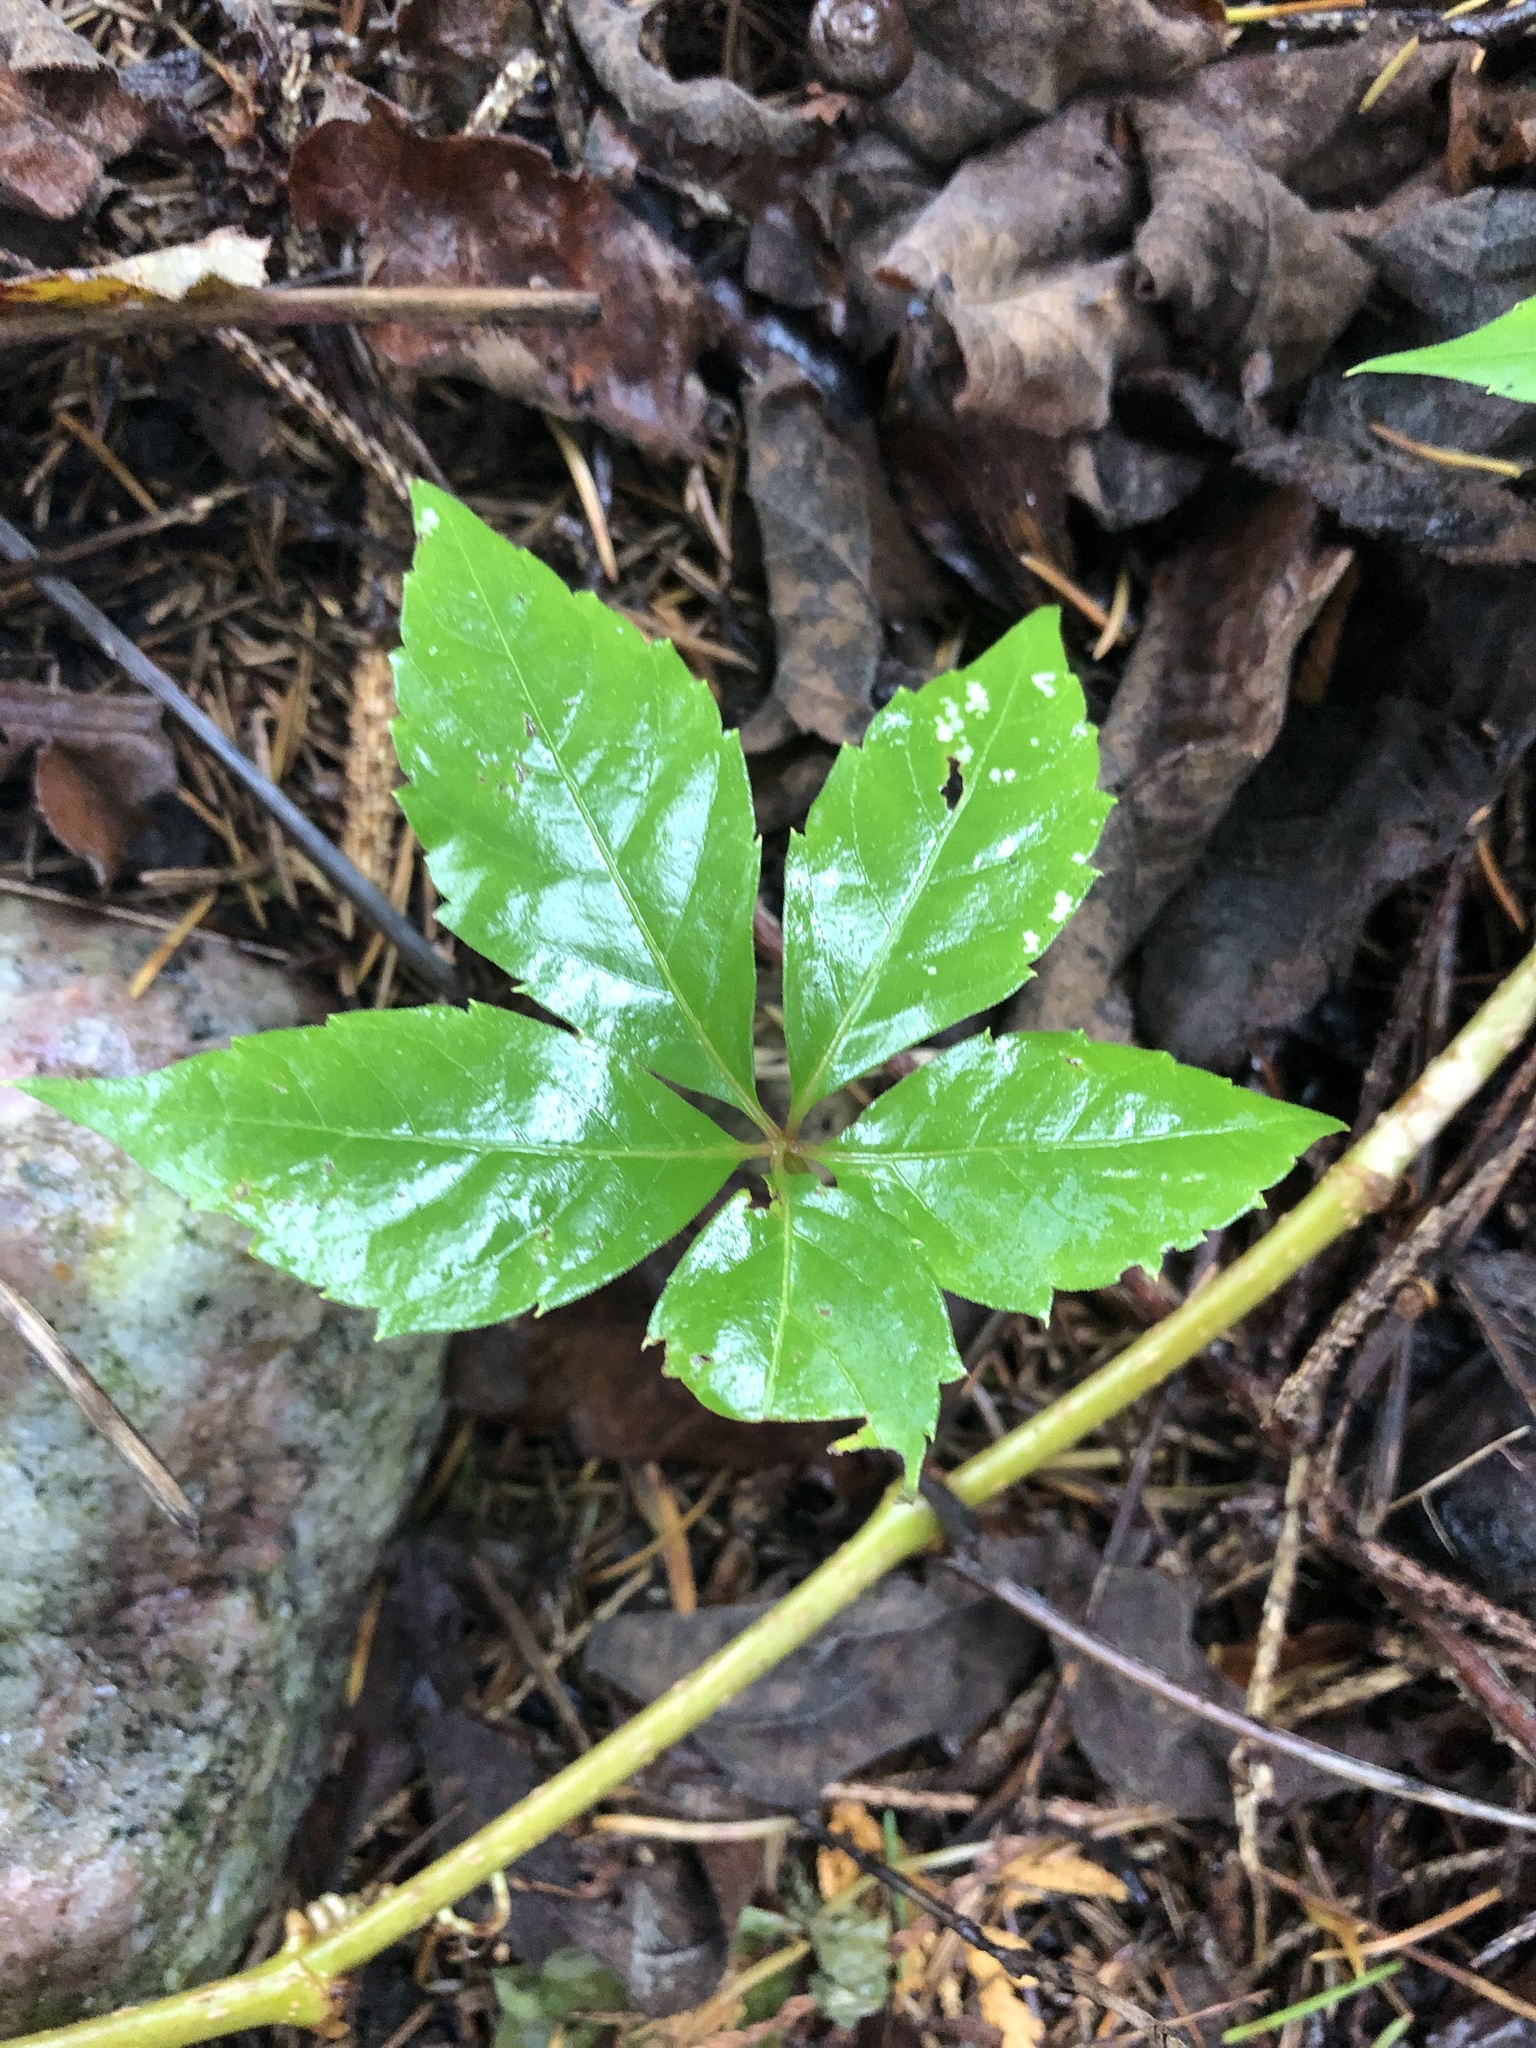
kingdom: Plantae
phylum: Tracheophyta
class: Magnoliopsida
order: Vitales
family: Vitaceae
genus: Parthenocissus
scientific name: Parthenocissus quinquefolia
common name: Virginia-creeper
